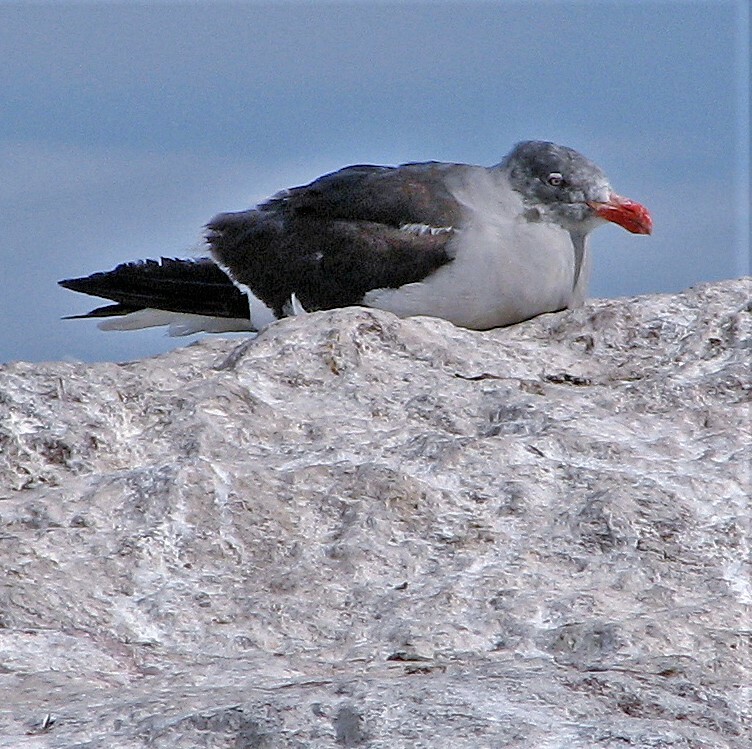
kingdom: Animalia
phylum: Chordata
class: Aves
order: Charadriiformes
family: Laridae
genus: Leucophaeus
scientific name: Leucophaeus scoresbii
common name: Dolphin gull
